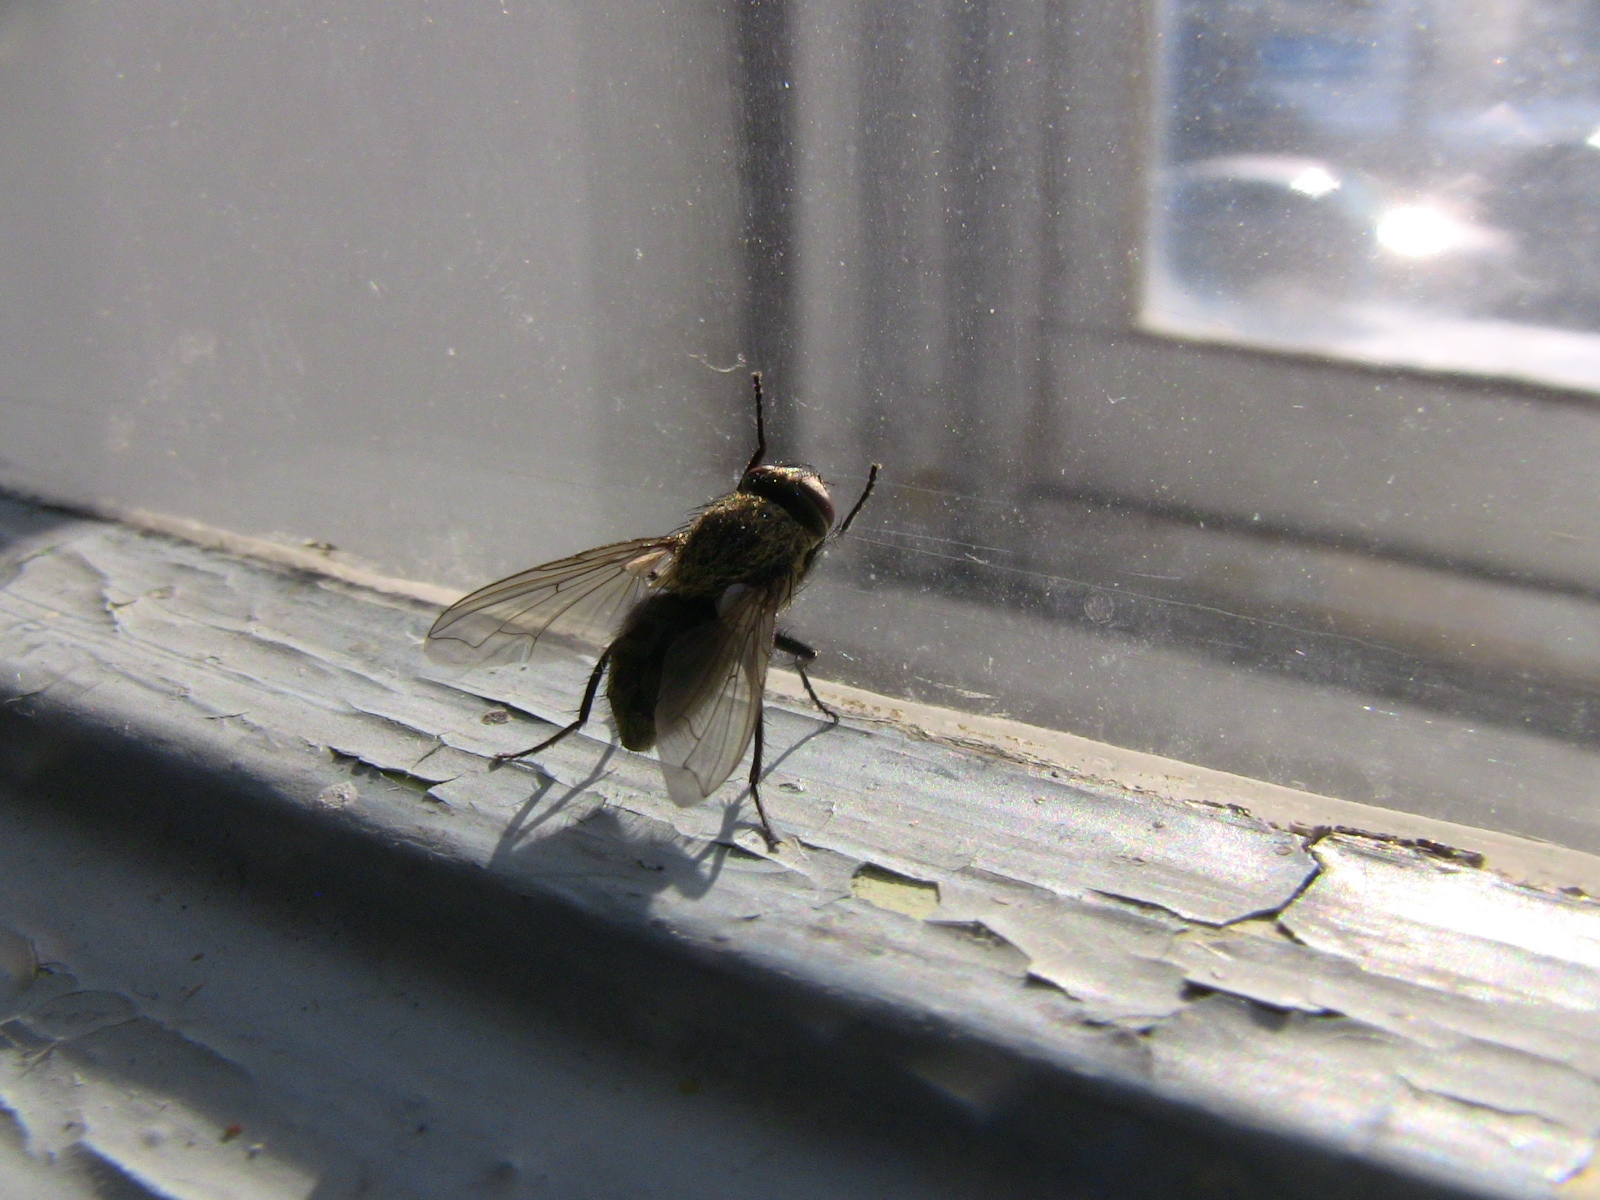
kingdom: Animalia
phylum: Arthropoda
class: Insecta
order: Diptera
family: Polleniidae
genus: Pollenia
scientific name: Pollenia
